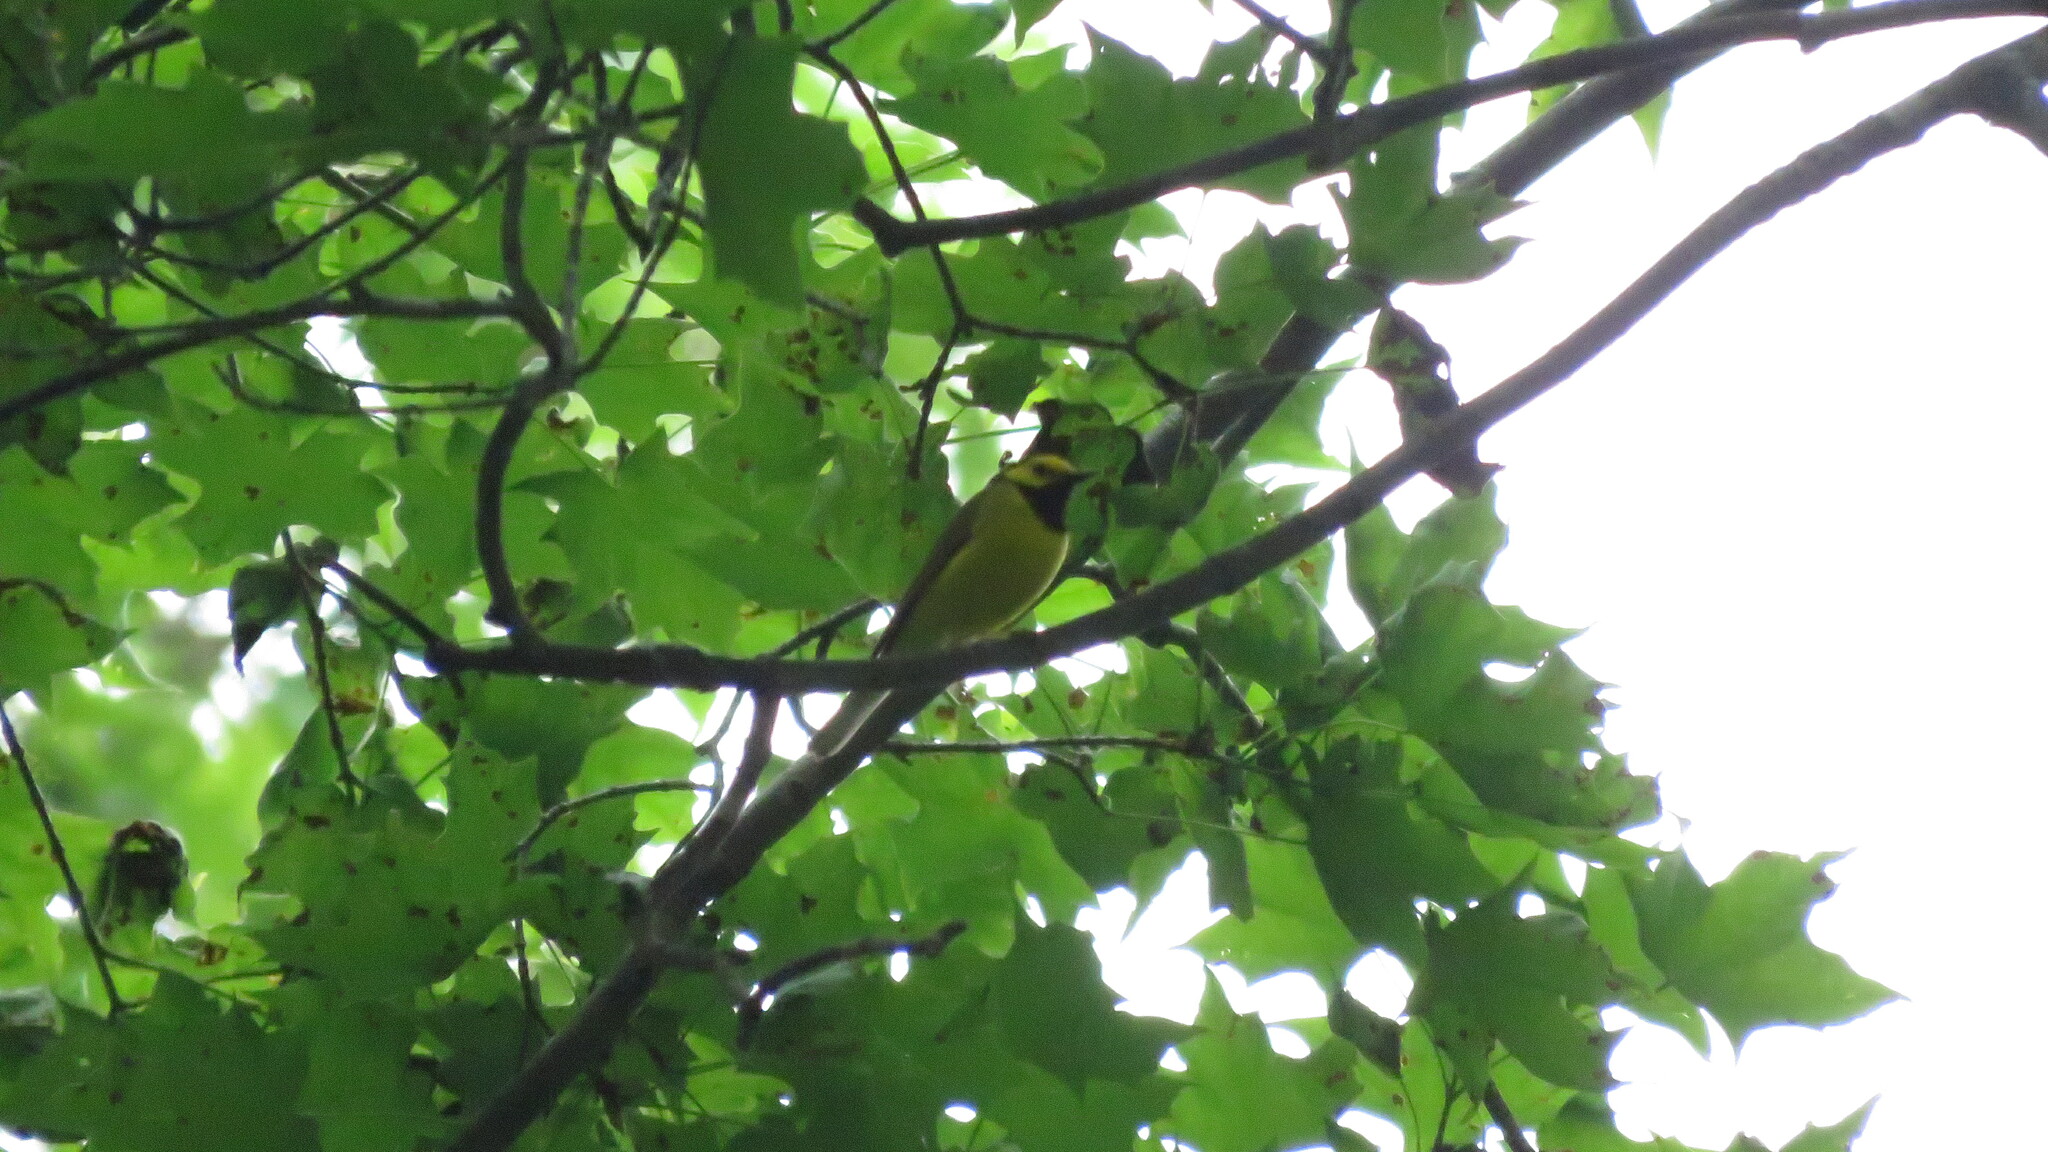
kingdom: Animalia
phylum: Chordata
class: Aves
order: Passeriformes
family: Parulidae
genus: Setophaga
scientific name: Setophaga citrina
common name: Hooded warbler
